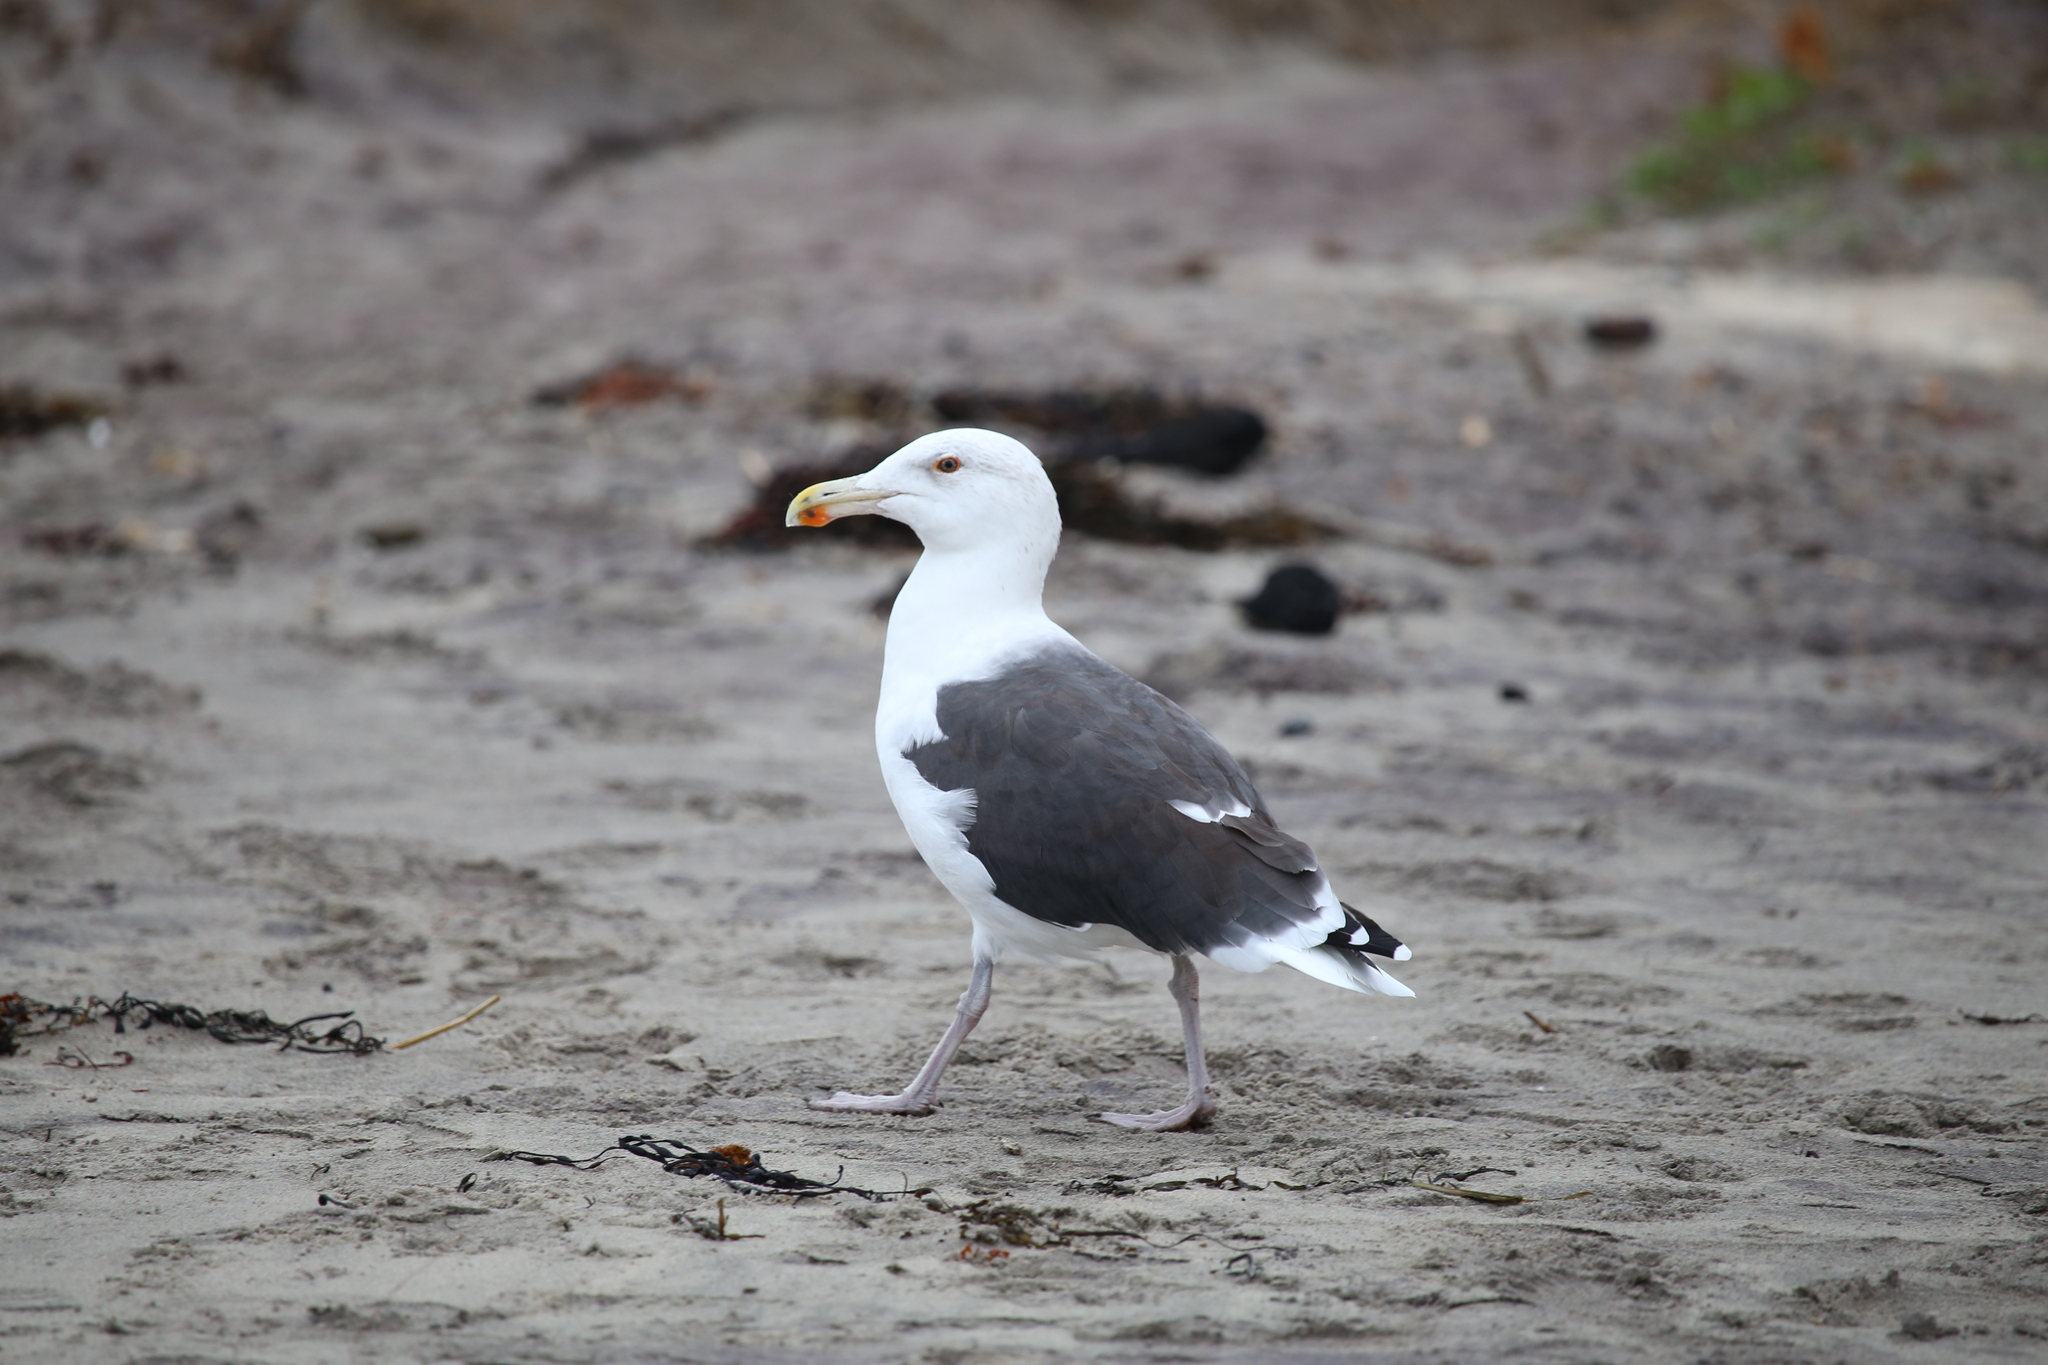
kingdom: Animalia
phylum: Chordata
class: Aves
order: Charadriiformes
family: Laridae
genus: Larus
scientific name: Larus marinus
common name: Great black-backed gull
